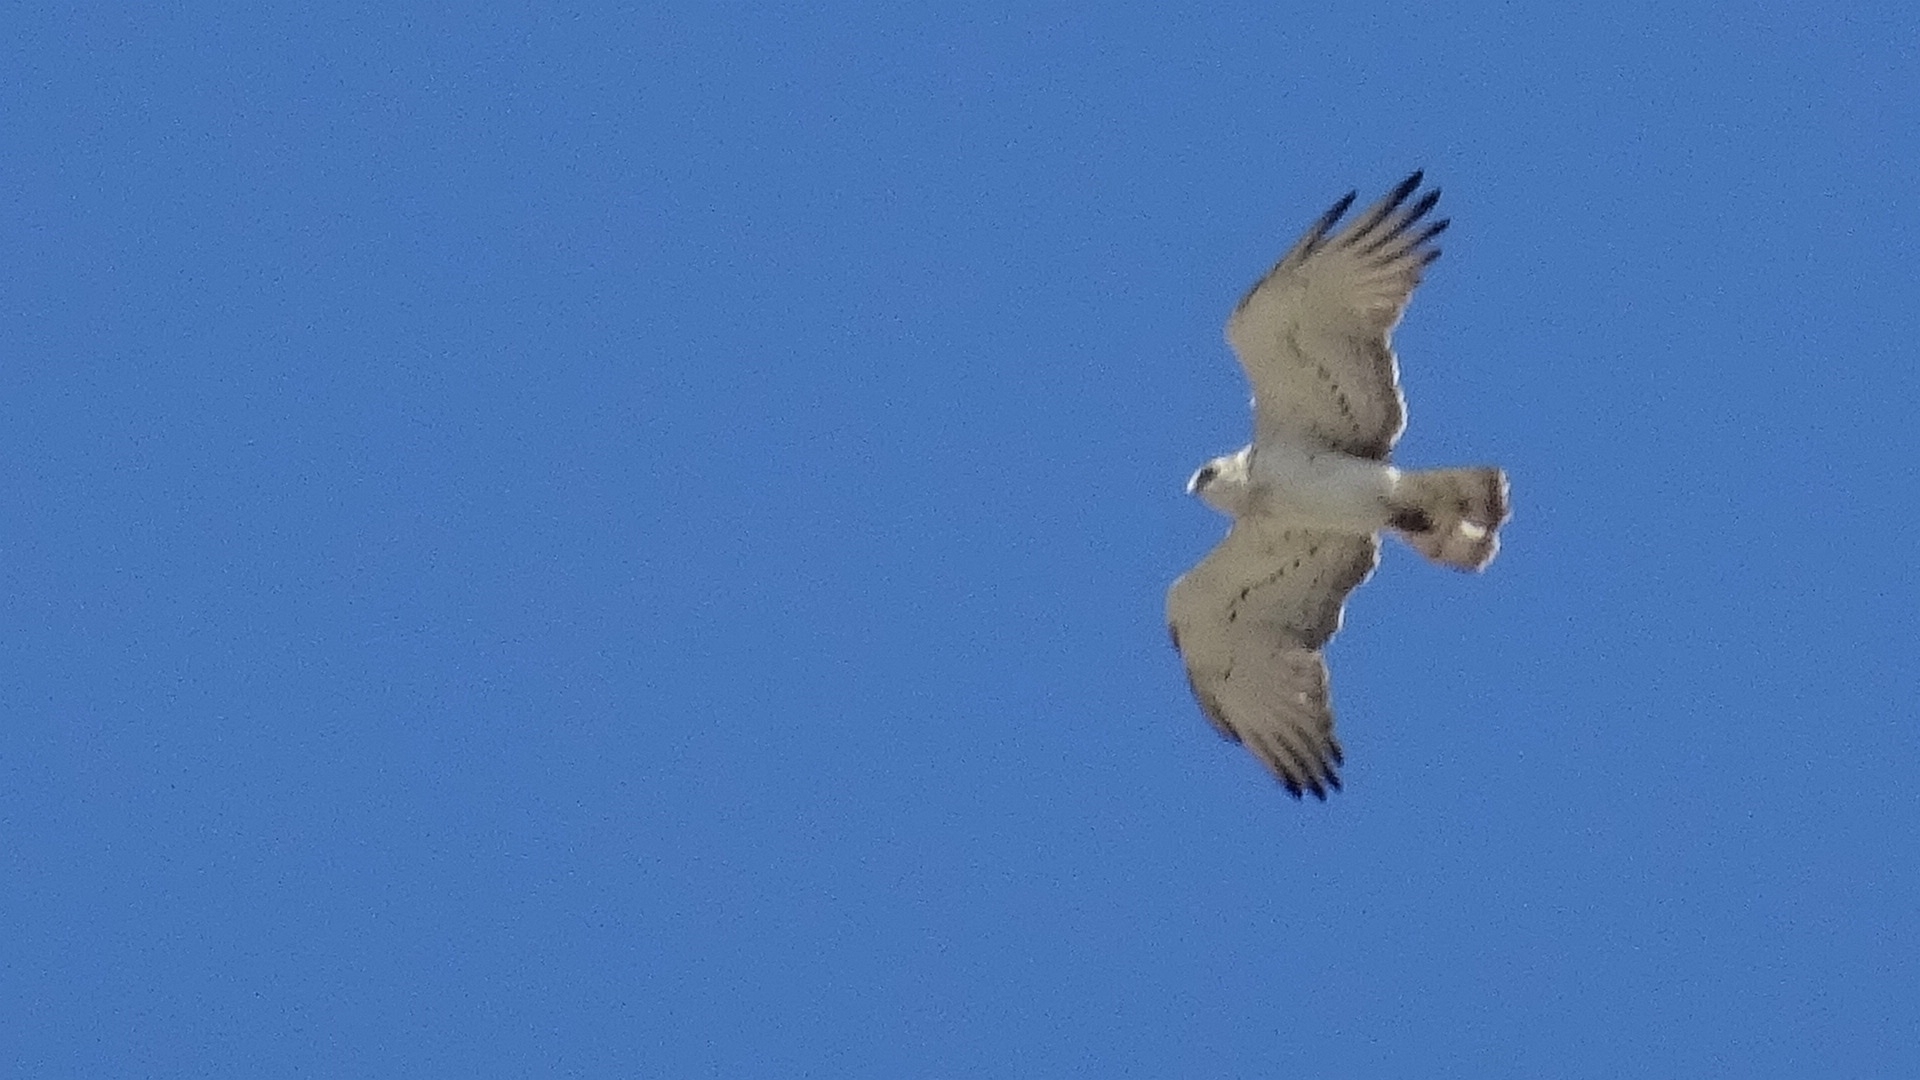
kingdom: Animalia
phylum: Chordata
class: Aves
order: Accipitriformes
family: Accipitridae
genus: Circaetus
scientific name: Circaetus gallicus
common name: Short-toed snake eagle
